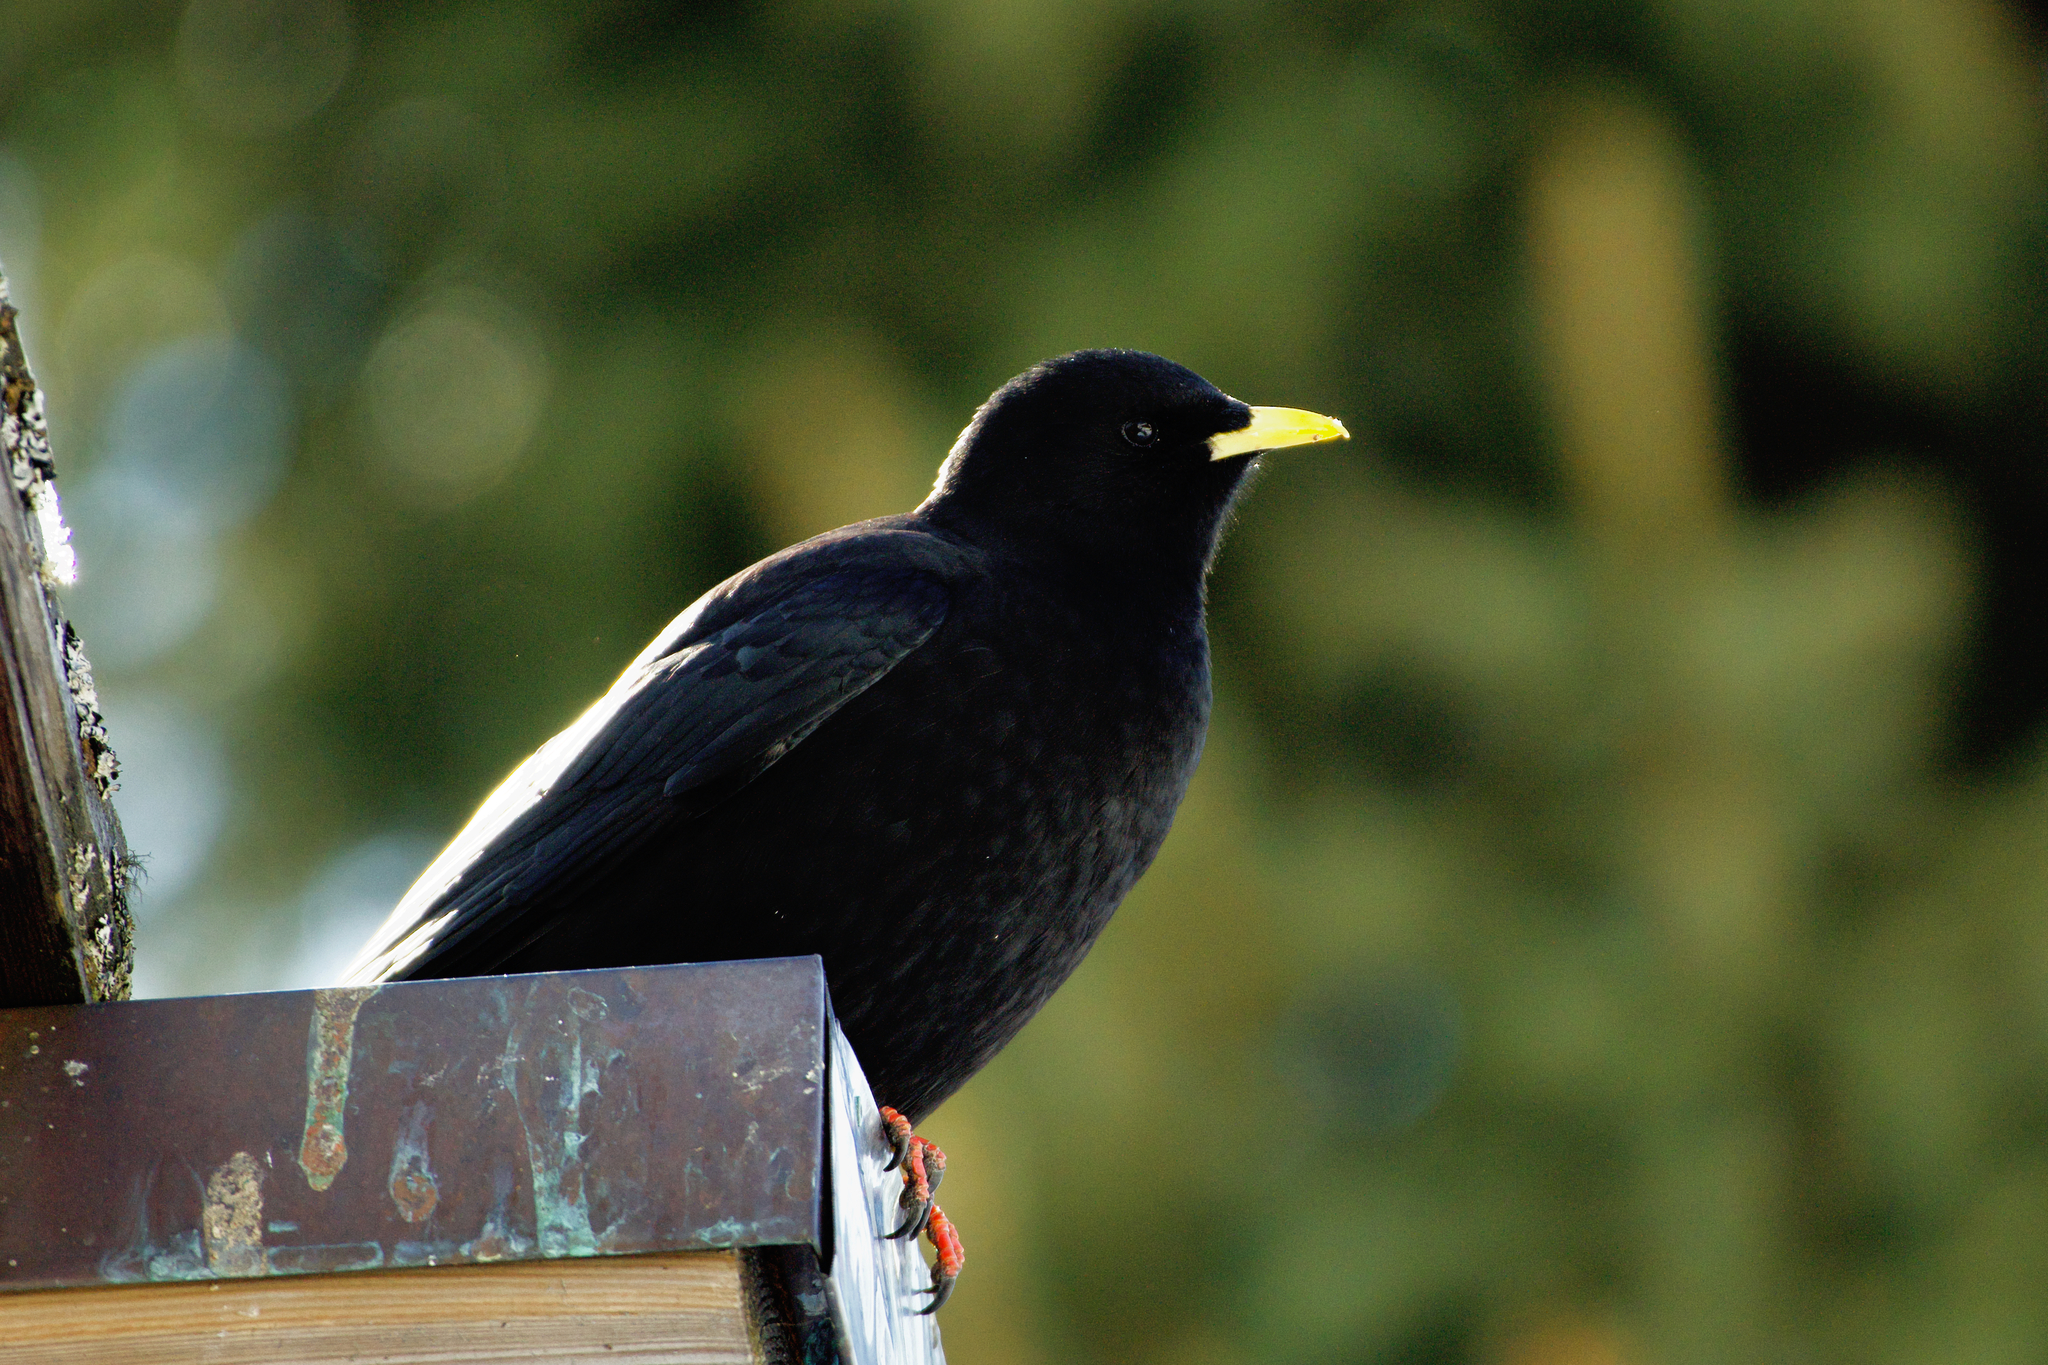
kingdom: Animalia
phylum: Chordata
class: Aves
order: Passeriformes
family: Corvidae
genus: Pyrrhocorax
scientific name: Pyrrhocorax graculus
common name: Alpine chough
